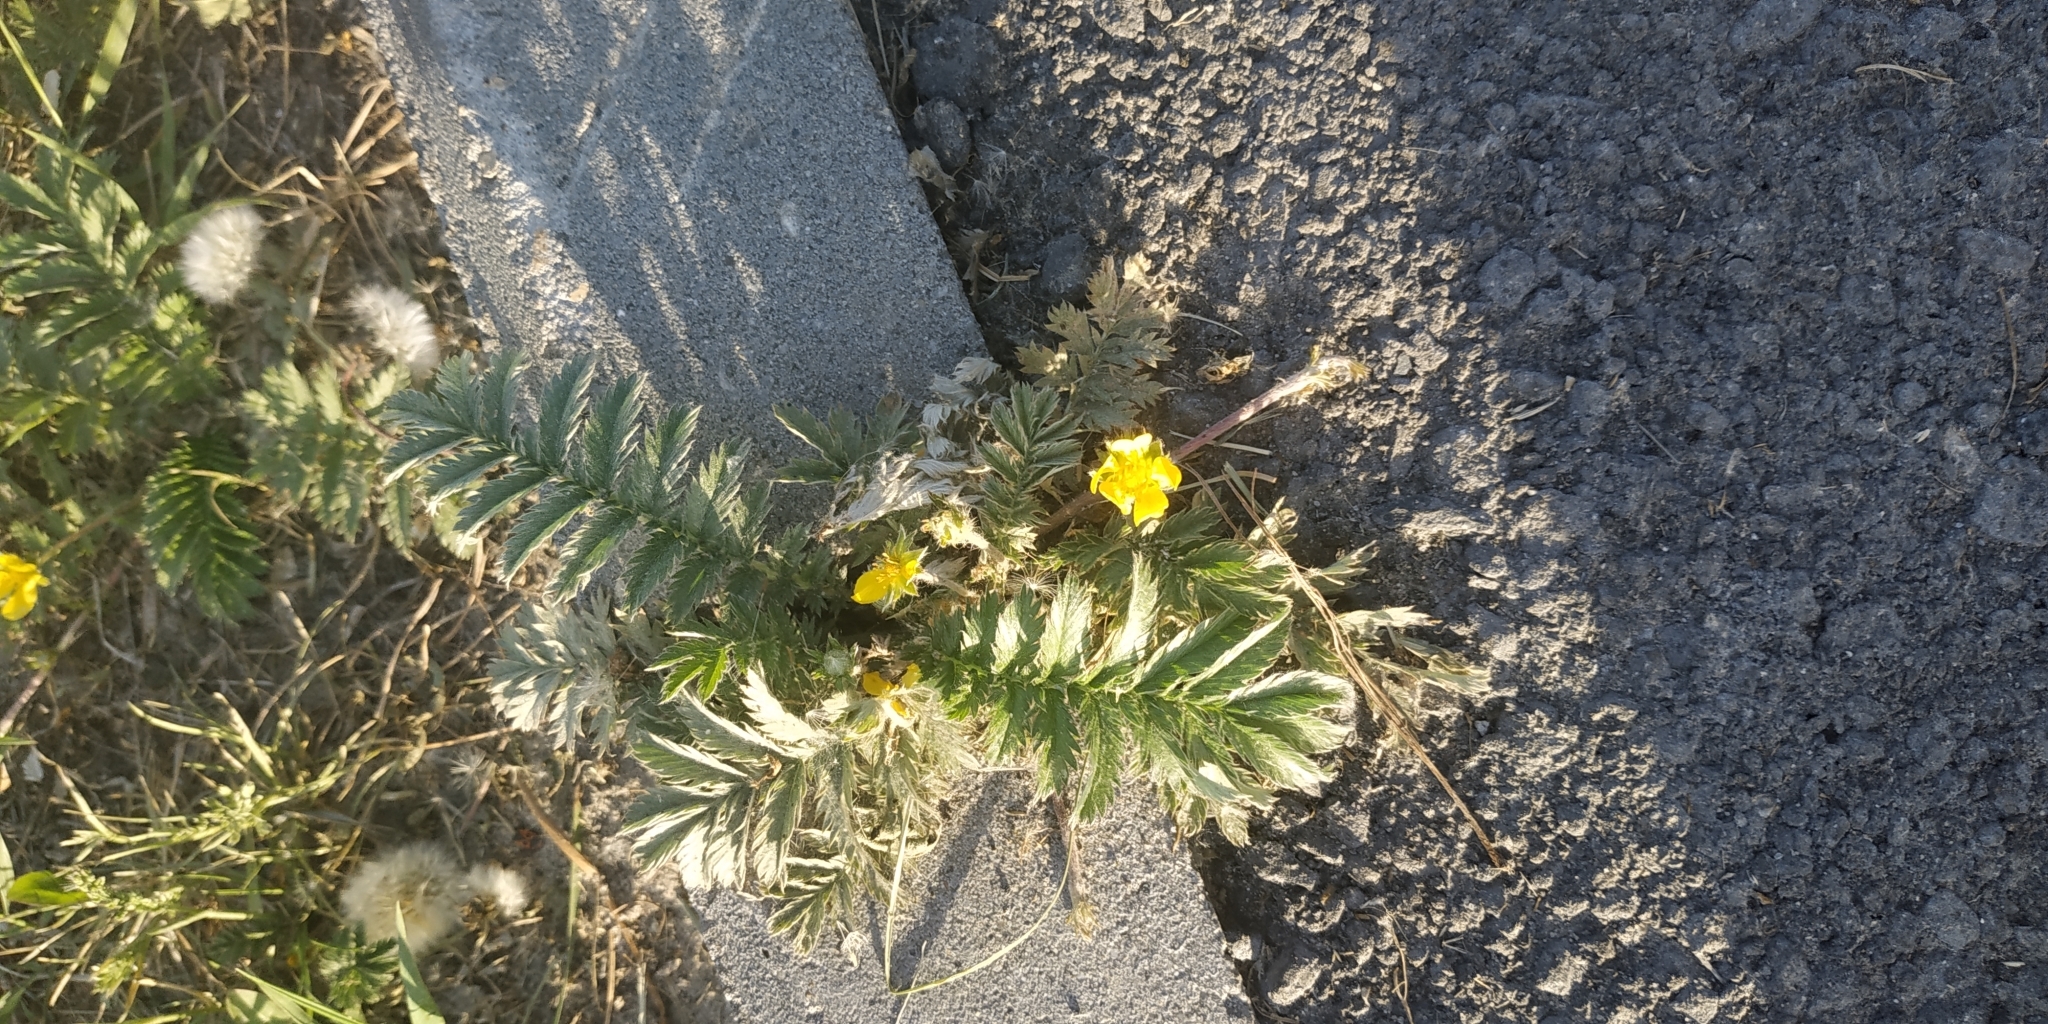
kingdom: Plantae
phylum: Tracheophyta
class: Magnoliopsida
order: Rosales
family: Rosaceae
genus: Argentina
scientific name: Argentina anserina
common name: Common silverweed
